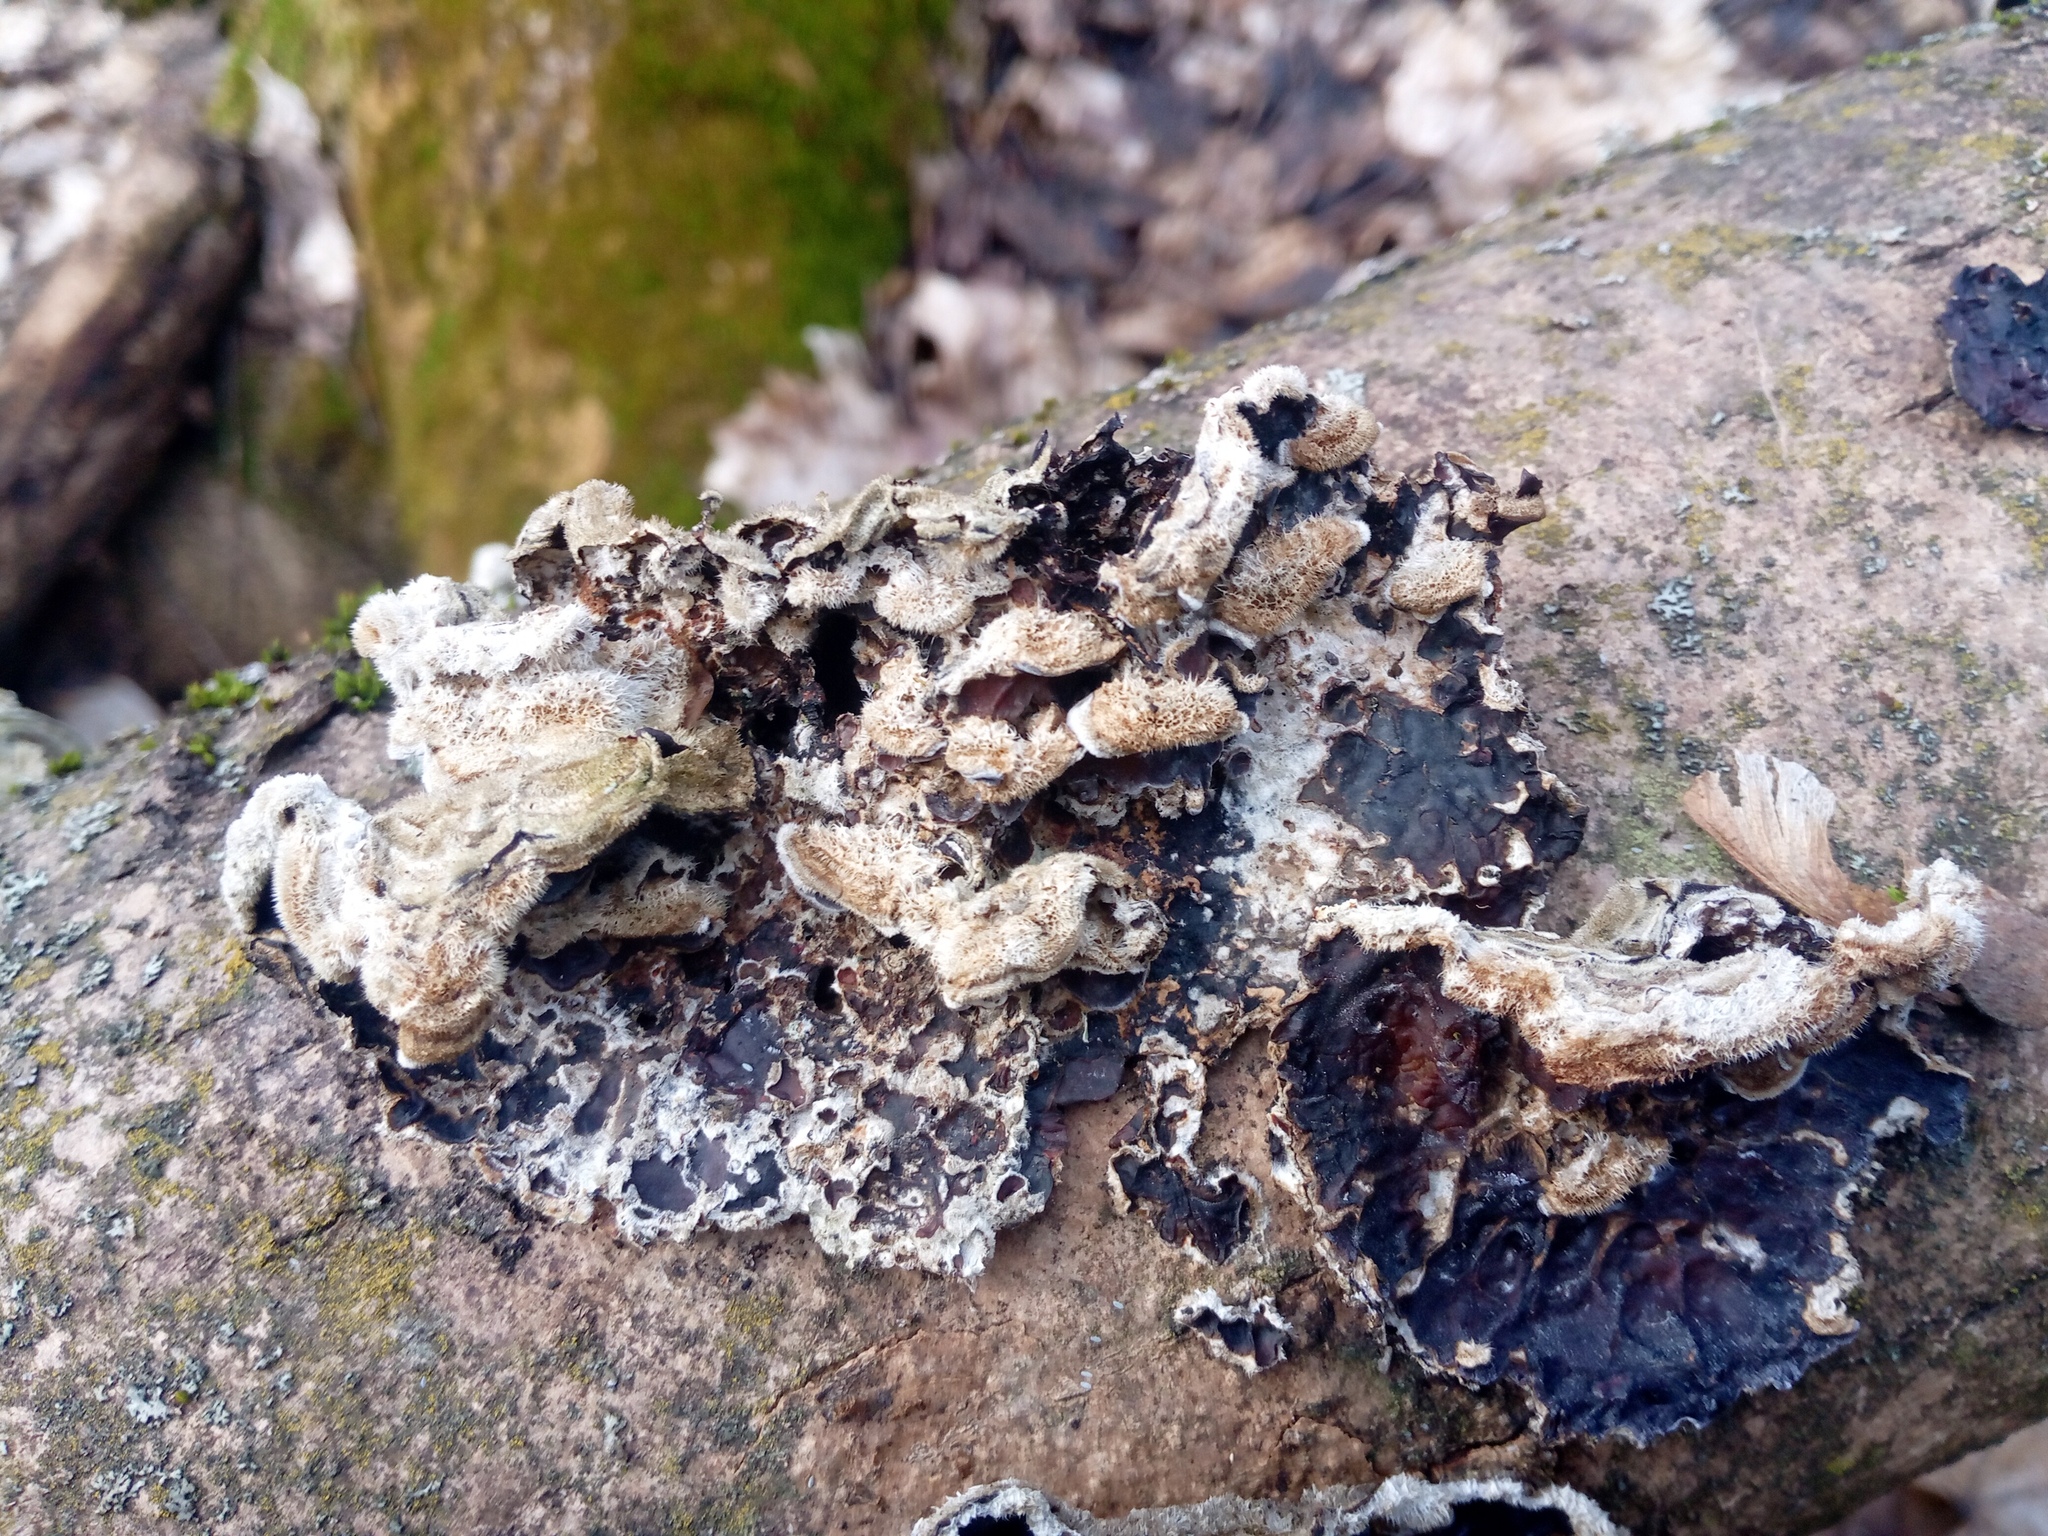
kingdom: Fungi
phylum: Basidiomycota
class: Agaricomycetes
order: Auriculariales
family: Auriculariaceae
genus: Auricularia
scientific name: Auricularia mesenterica
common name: Tripe fungus
